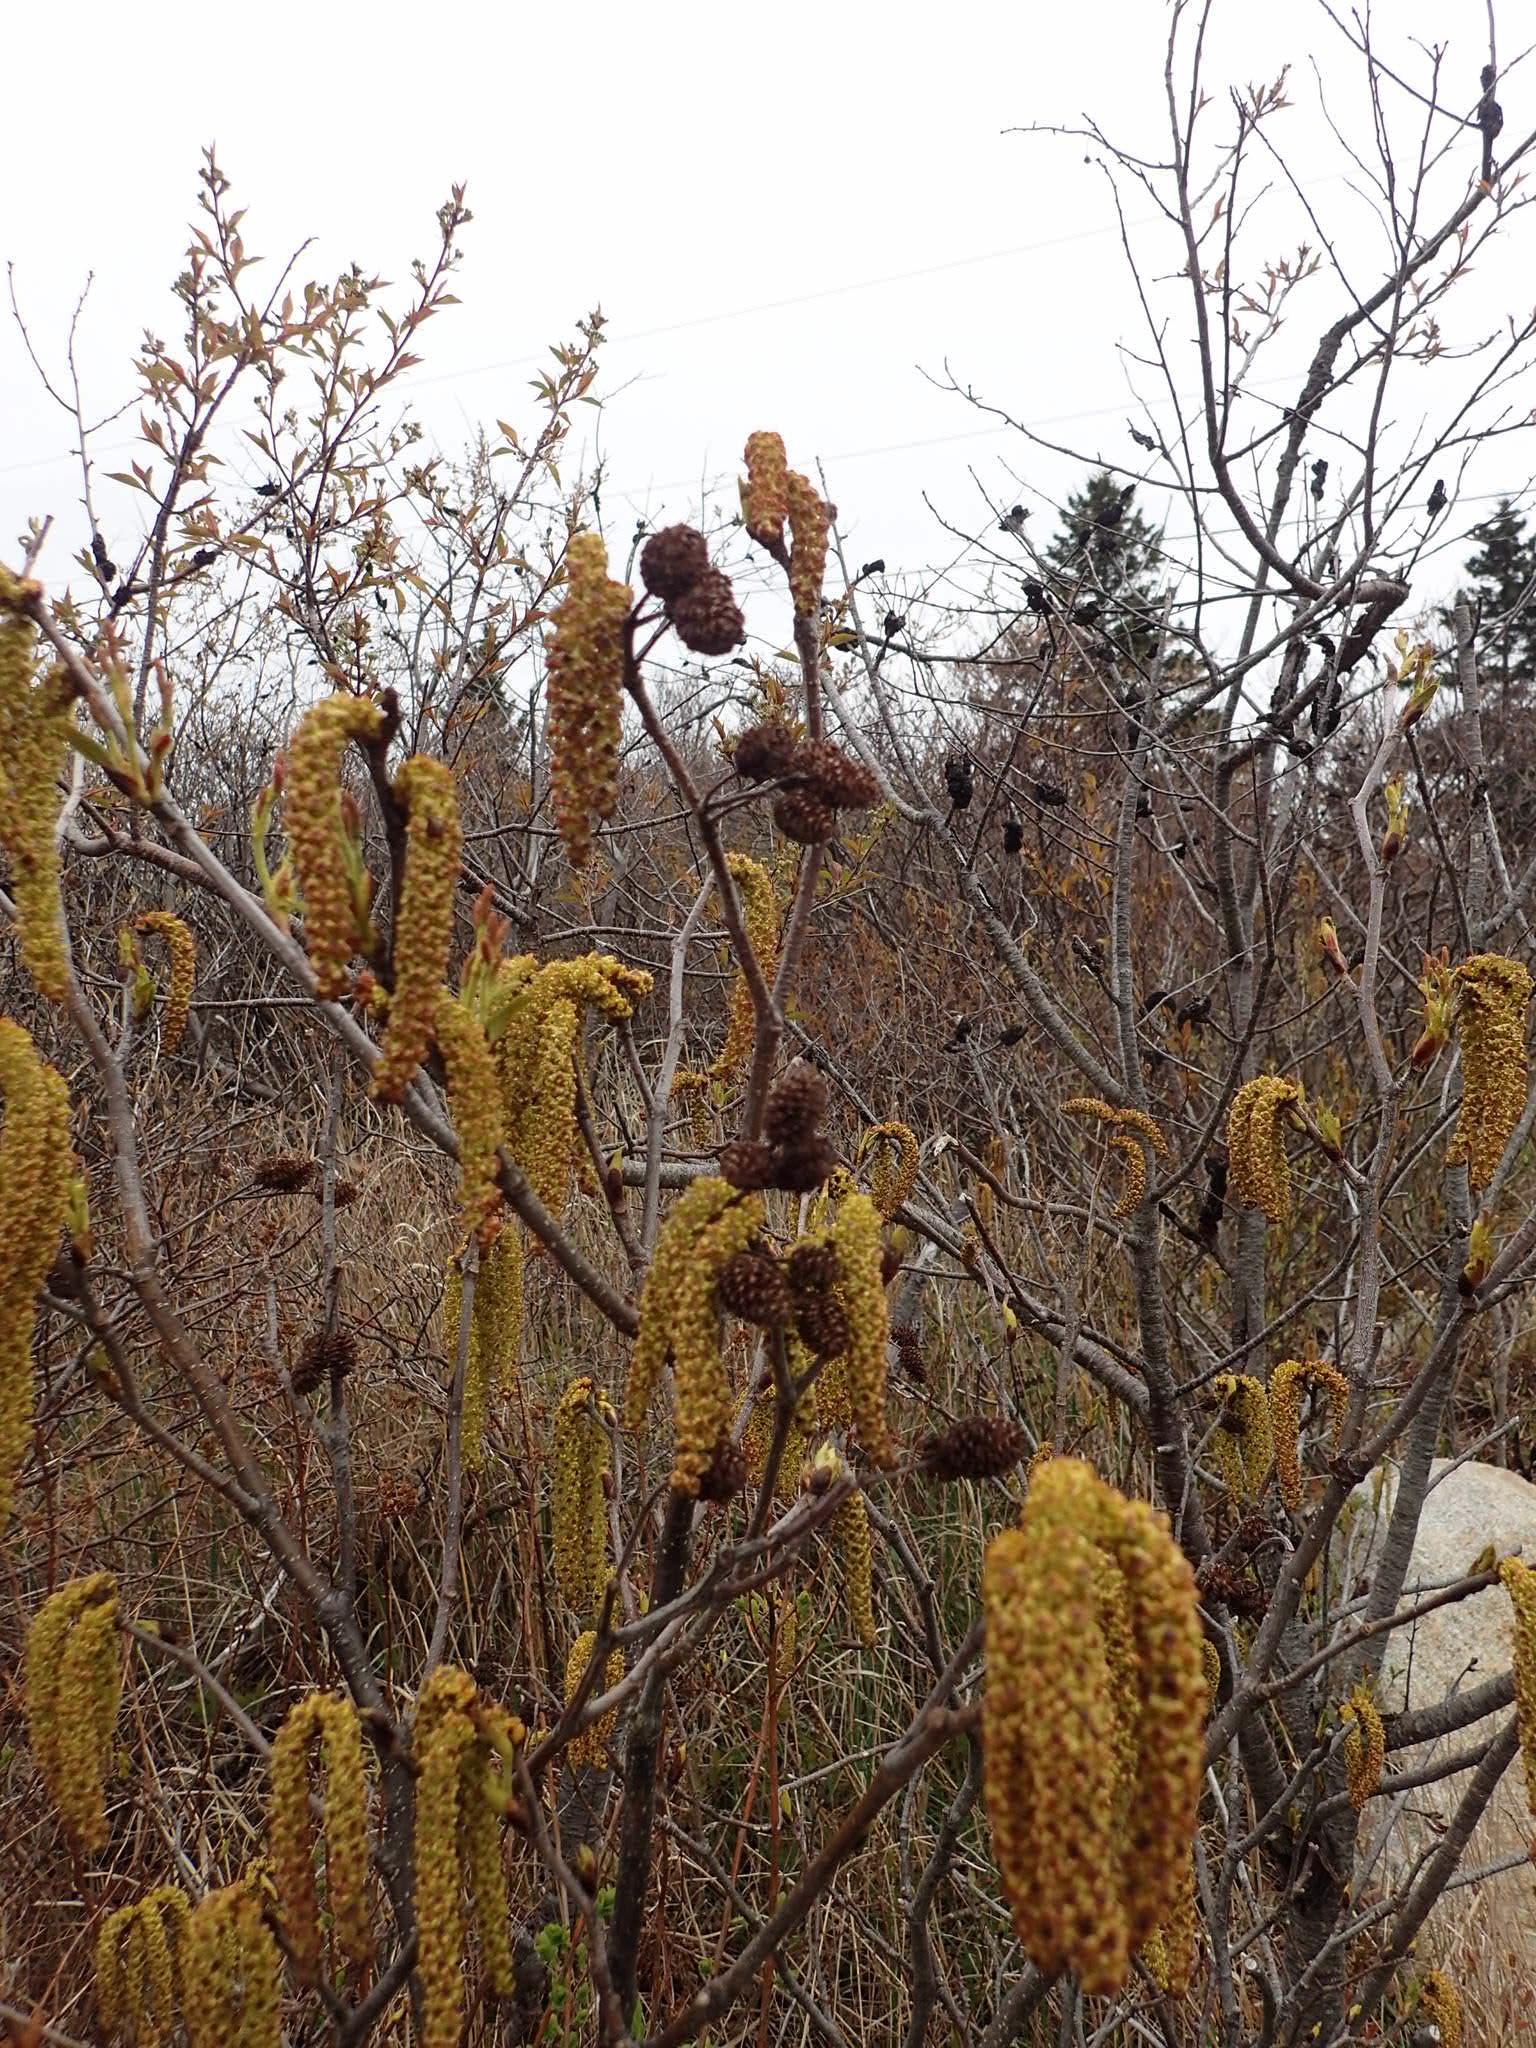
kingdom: Plantae
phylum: Tracheophyta
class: Magnoliopsida
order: Fagales
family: Betulaceae
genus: Alnus
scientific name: Alnus incana
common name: Grey alder
